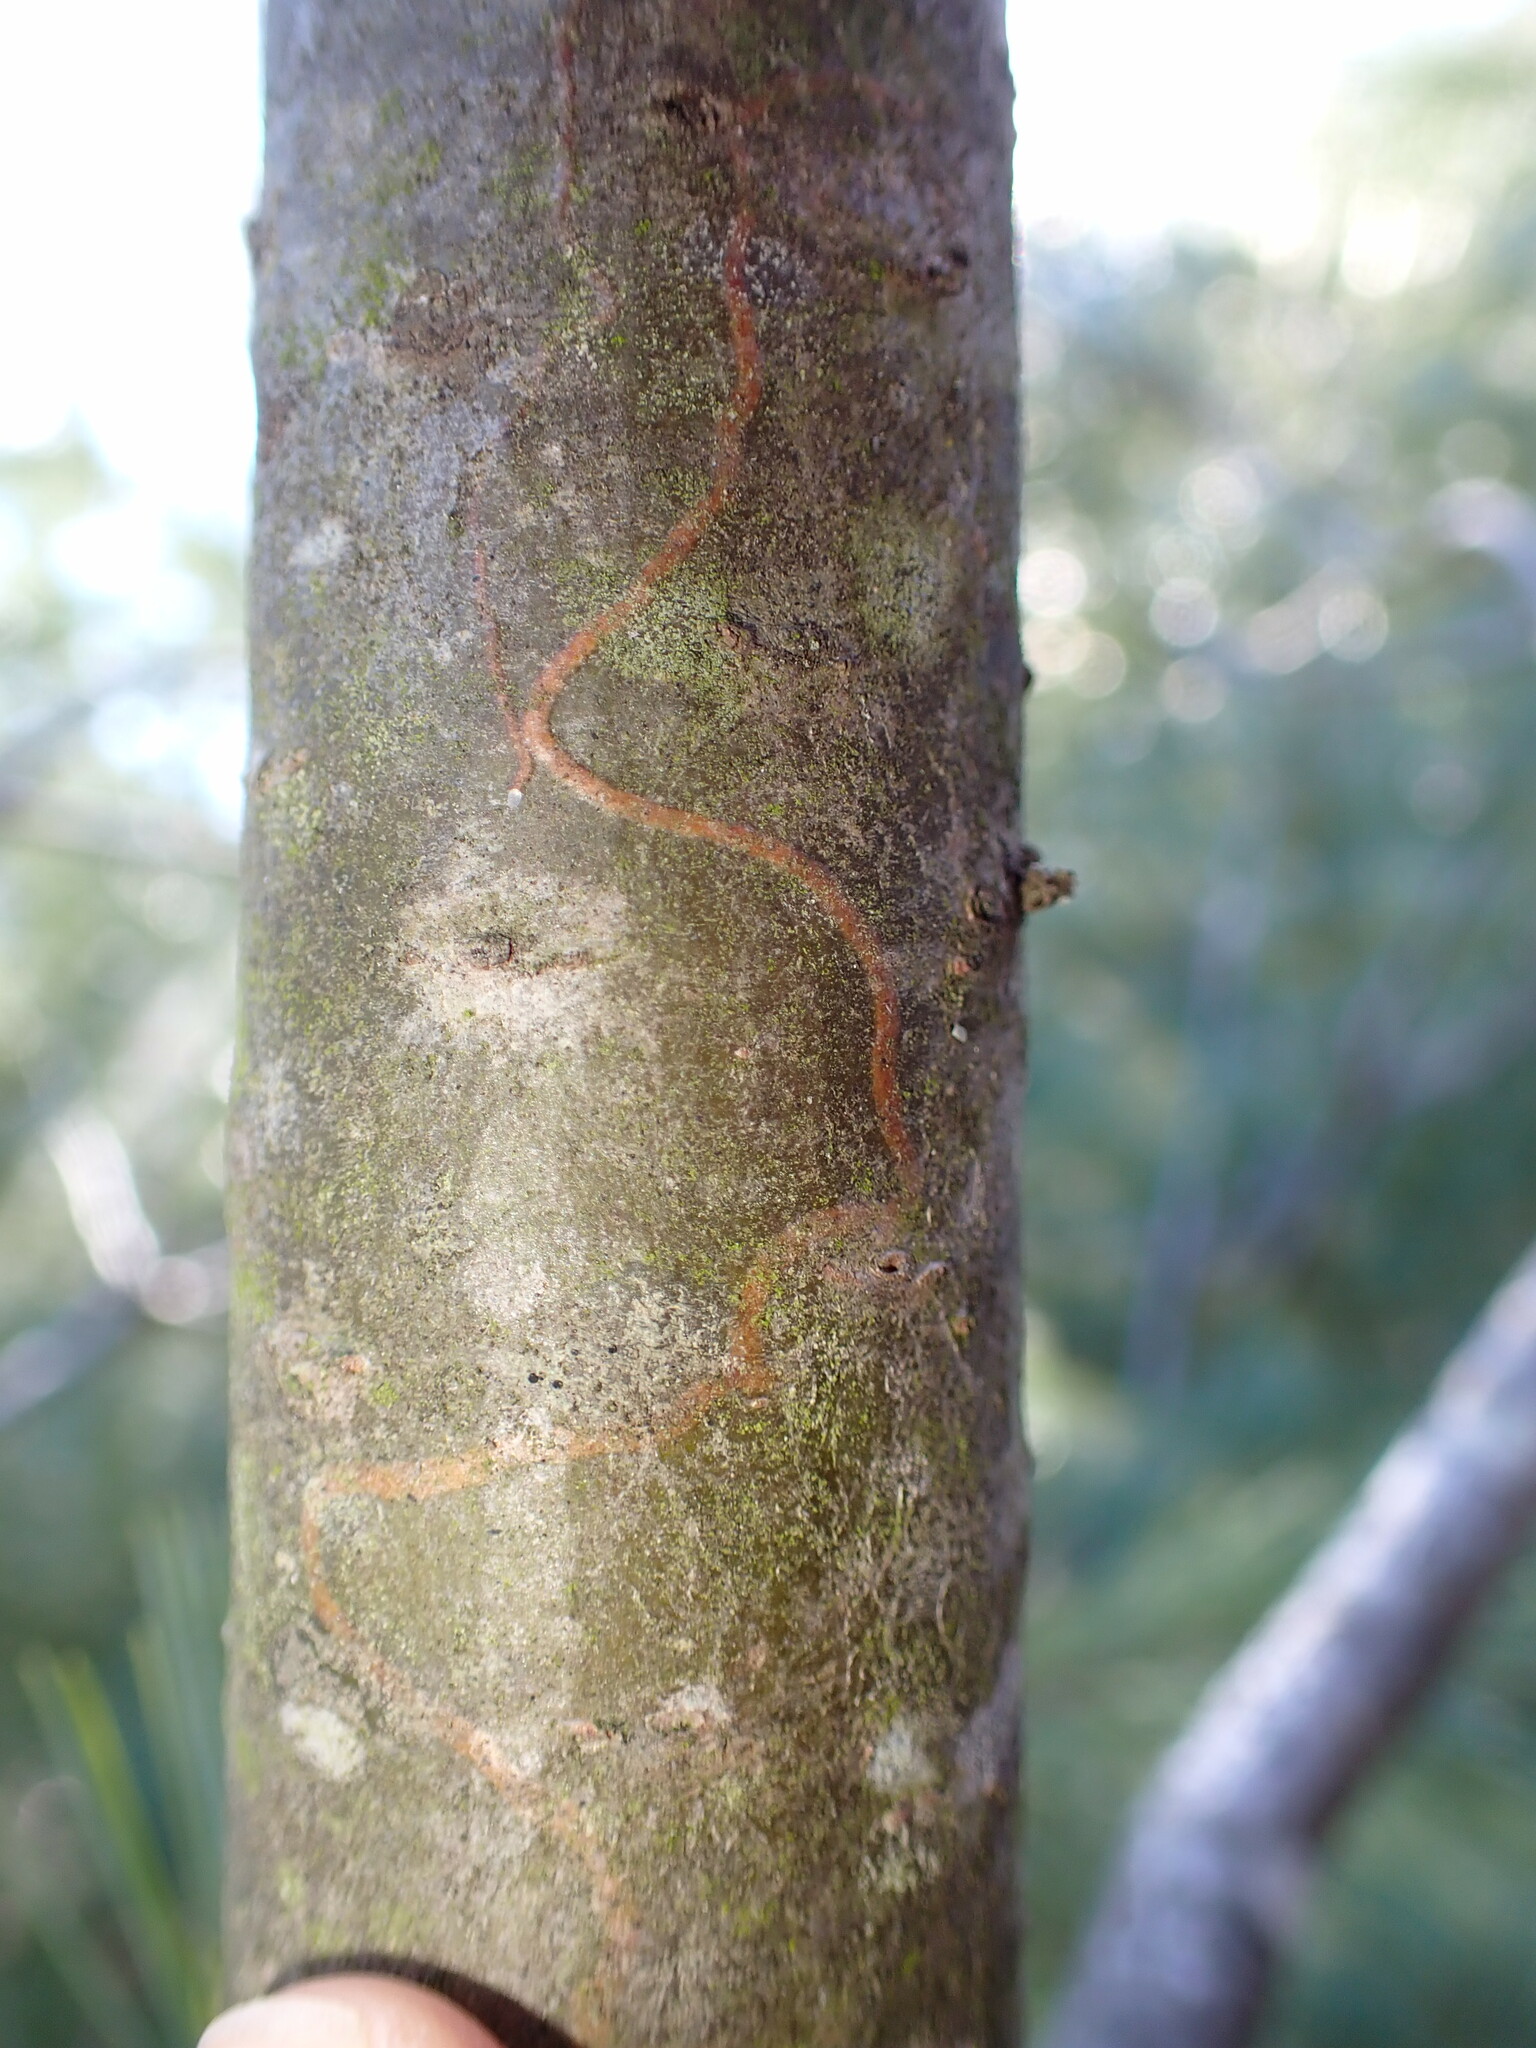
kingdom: Animalia
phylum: Arthropoda
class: Insecta
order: Lepidoptera
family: Gracillariidae
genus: Marmara
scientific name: Marmara fasciella
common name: White pine barkminer moth
